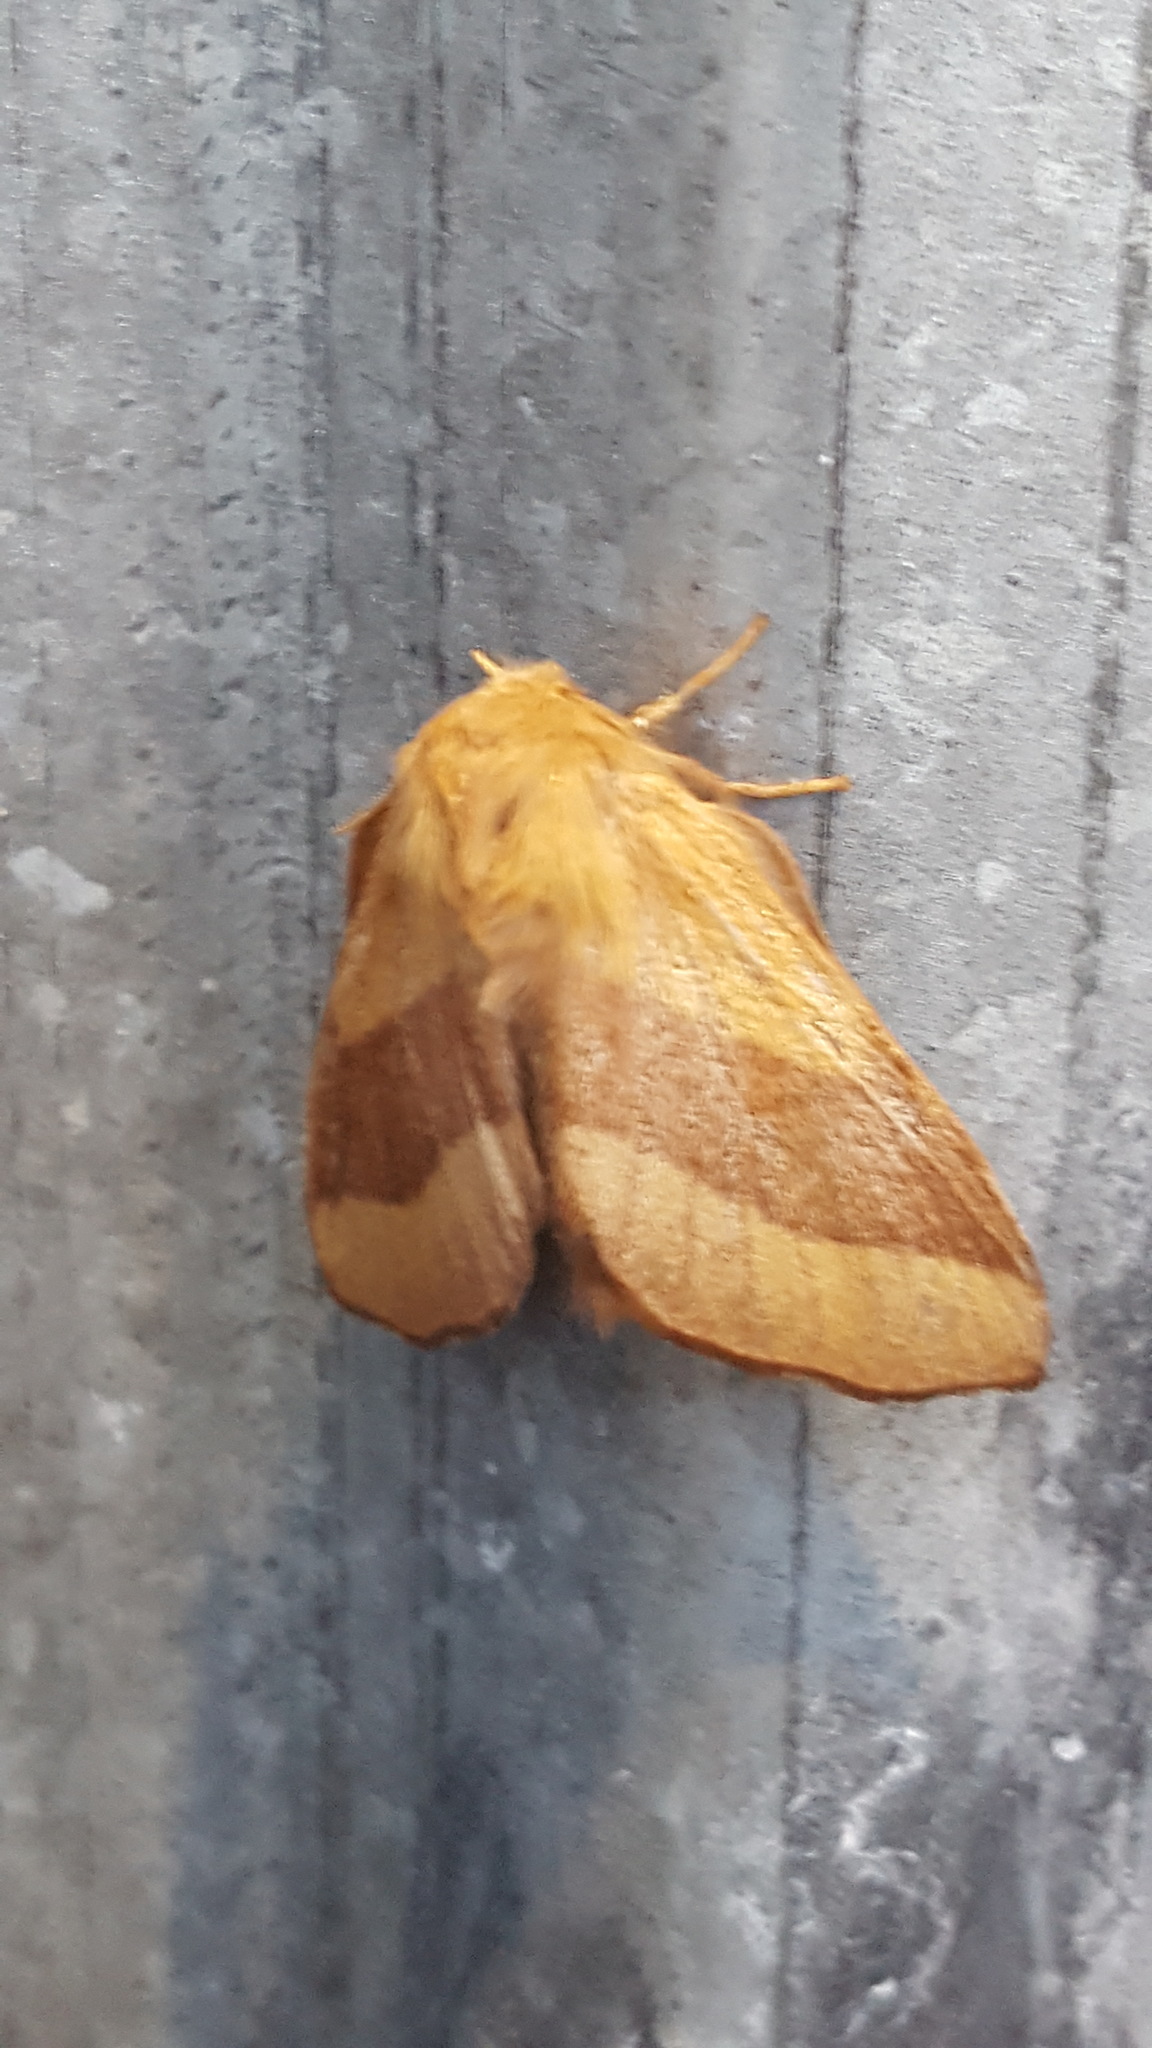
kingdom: Animalia
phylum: Arthropoda
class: Insecta
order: Lepidoptera
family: Lasiocampidae
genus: Malacosoma
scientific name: Malacosoma disstria
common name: Forest tent caterpillar
